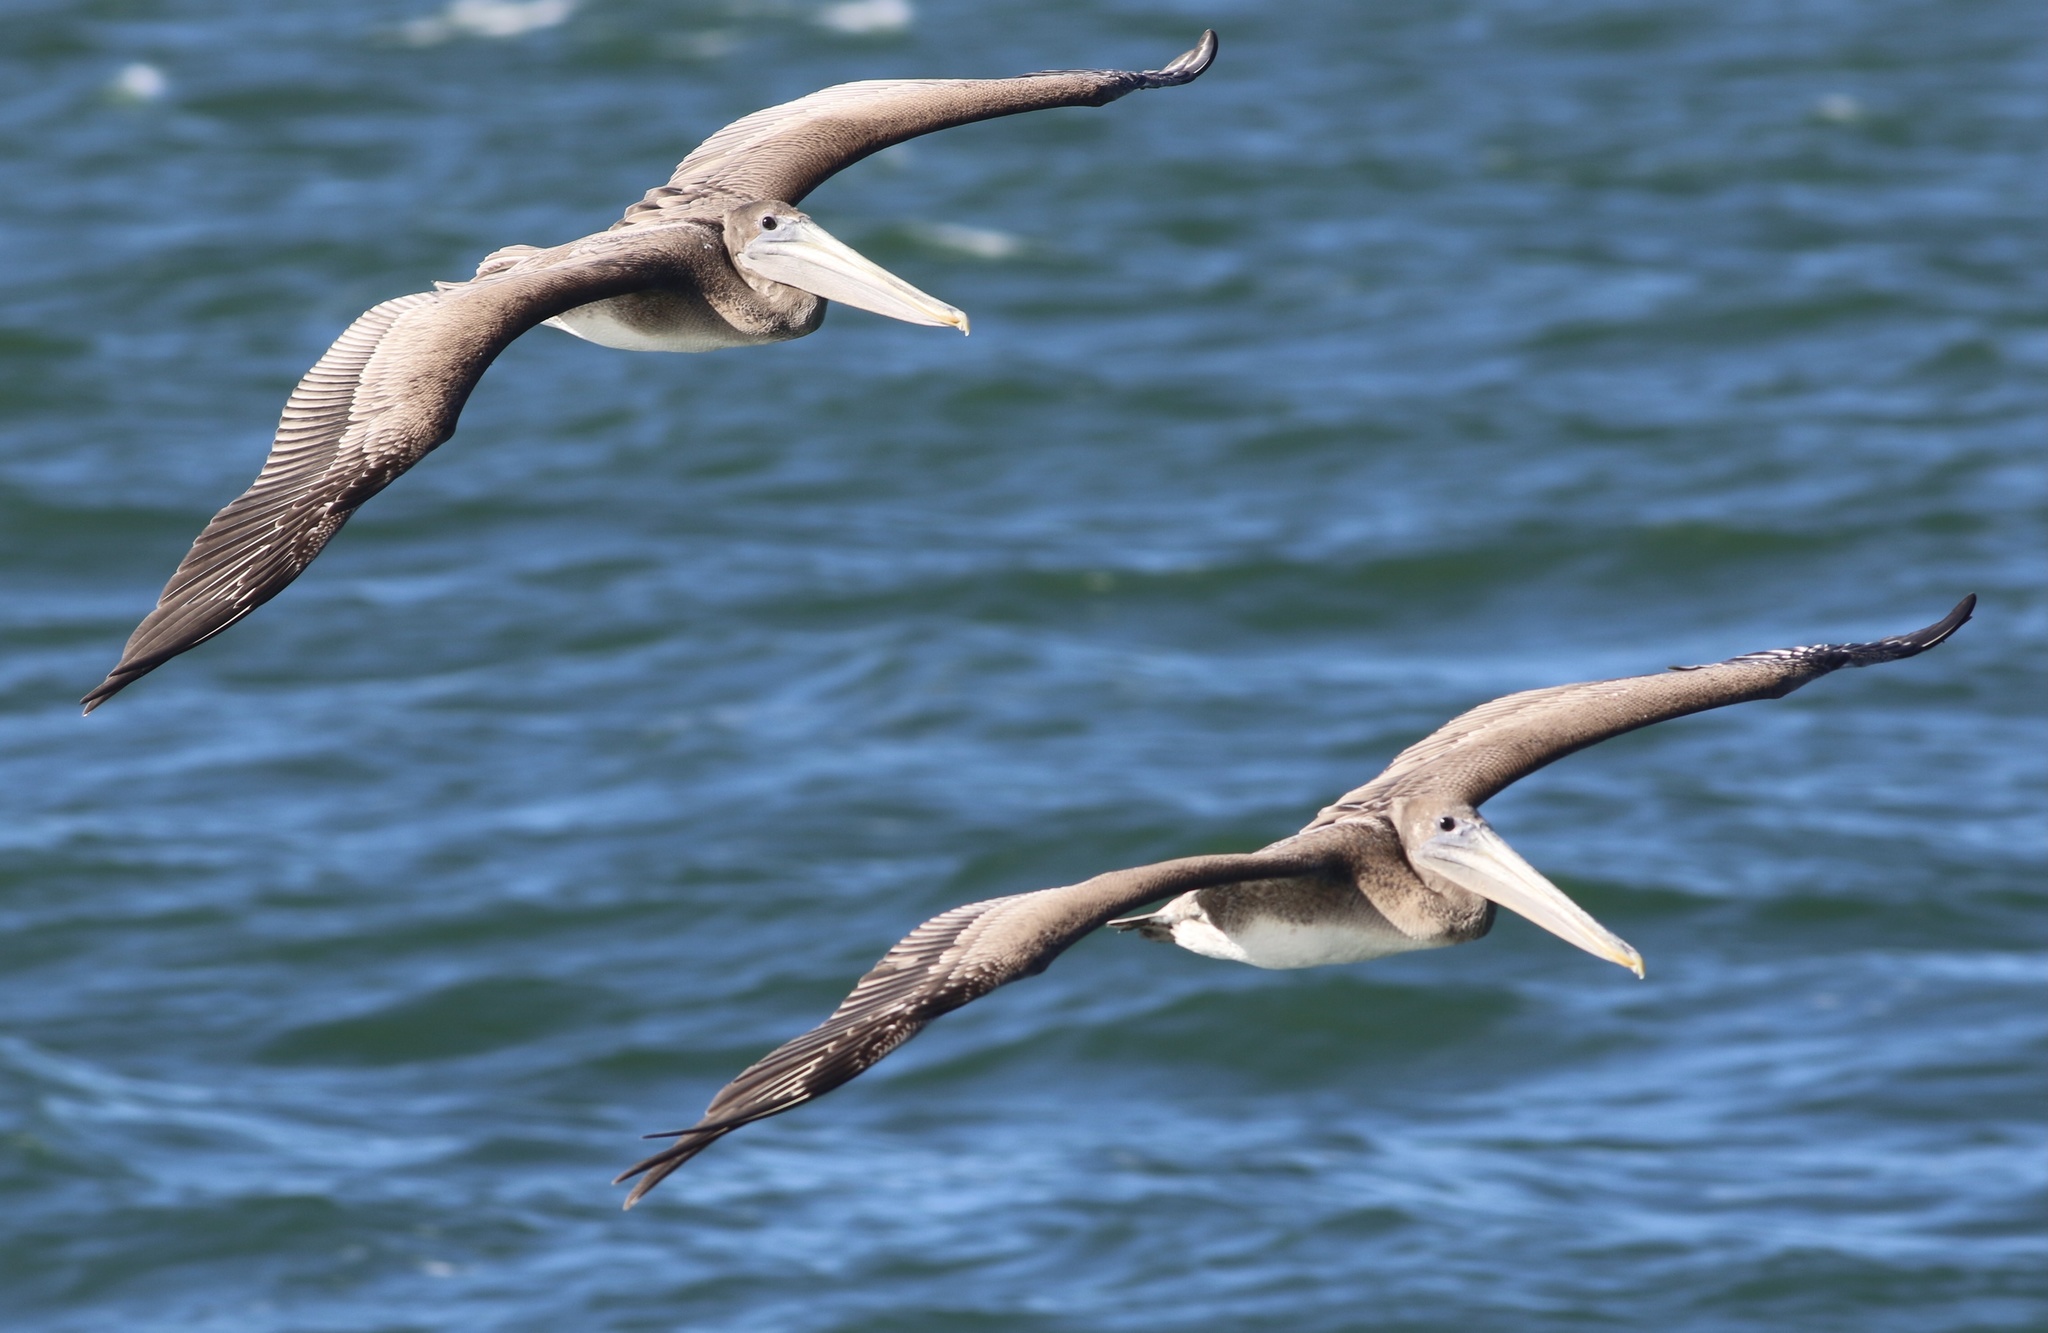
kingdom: Animalia
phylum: Chordata
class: Aves
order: Pelecaniformes
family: Pelecanidae
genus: Pelecanus
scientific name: Pelecanus occidentalis
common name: Brown pelican
